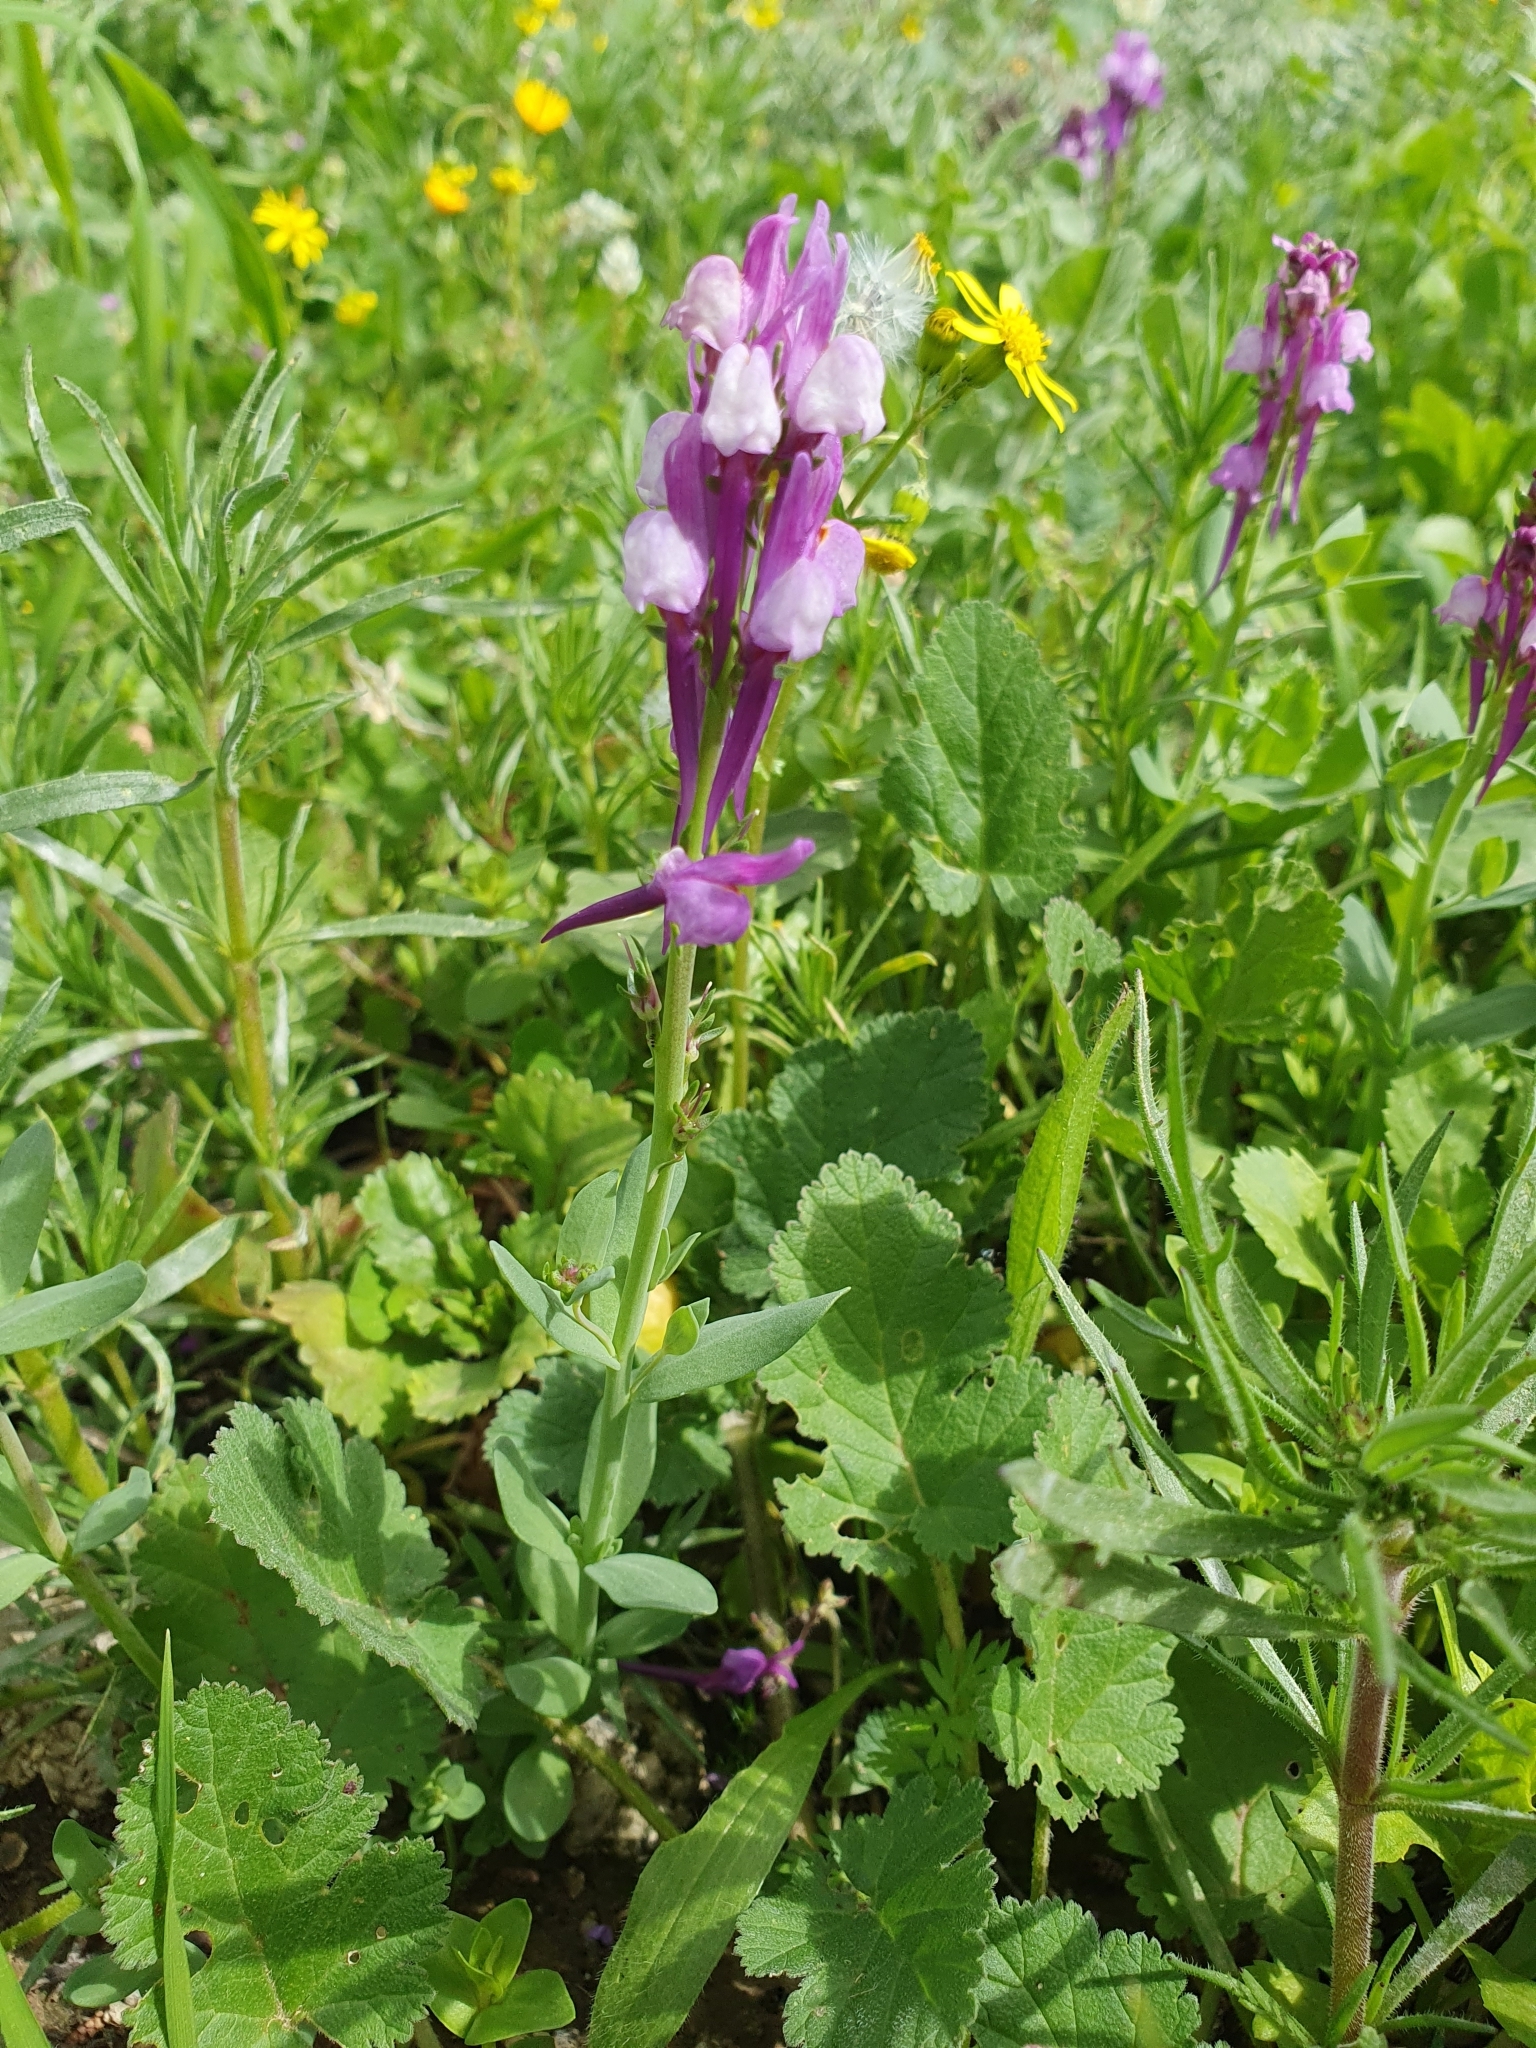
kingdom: Plantae
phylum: Tracheophyta
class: Magnoliopsida
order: Lamiales
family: Plantaginaceae
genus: Linaria
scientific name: Linaria virgata
